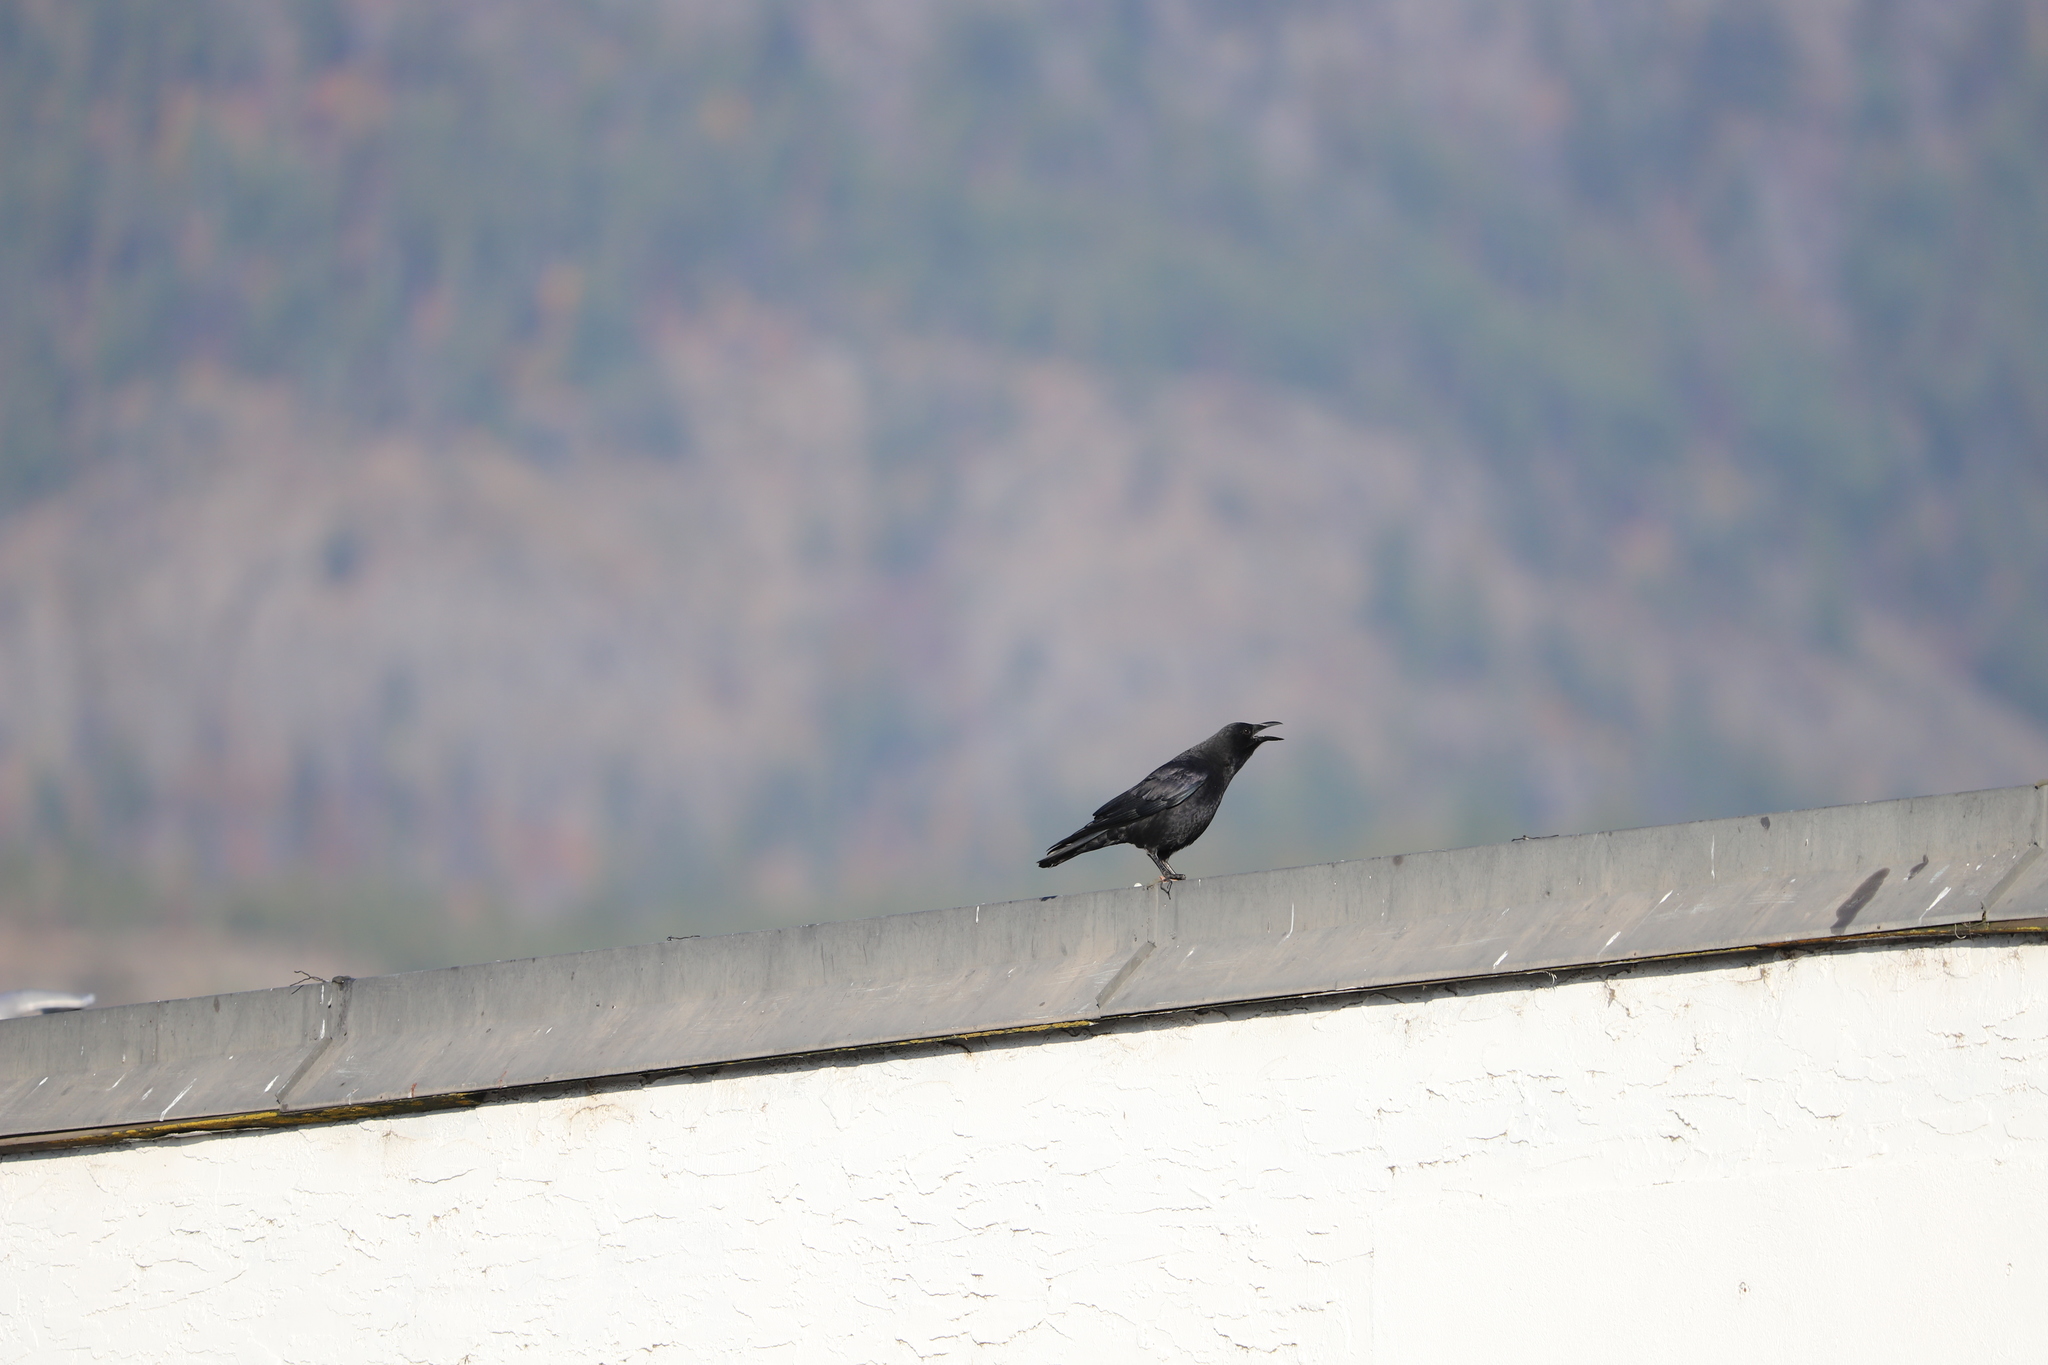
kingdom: Animalia
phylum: Chordata
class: Aves
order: Passeriformes
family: Corvidae
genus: Corvus
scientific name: Corvus brachyrhynchos
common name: American crow
